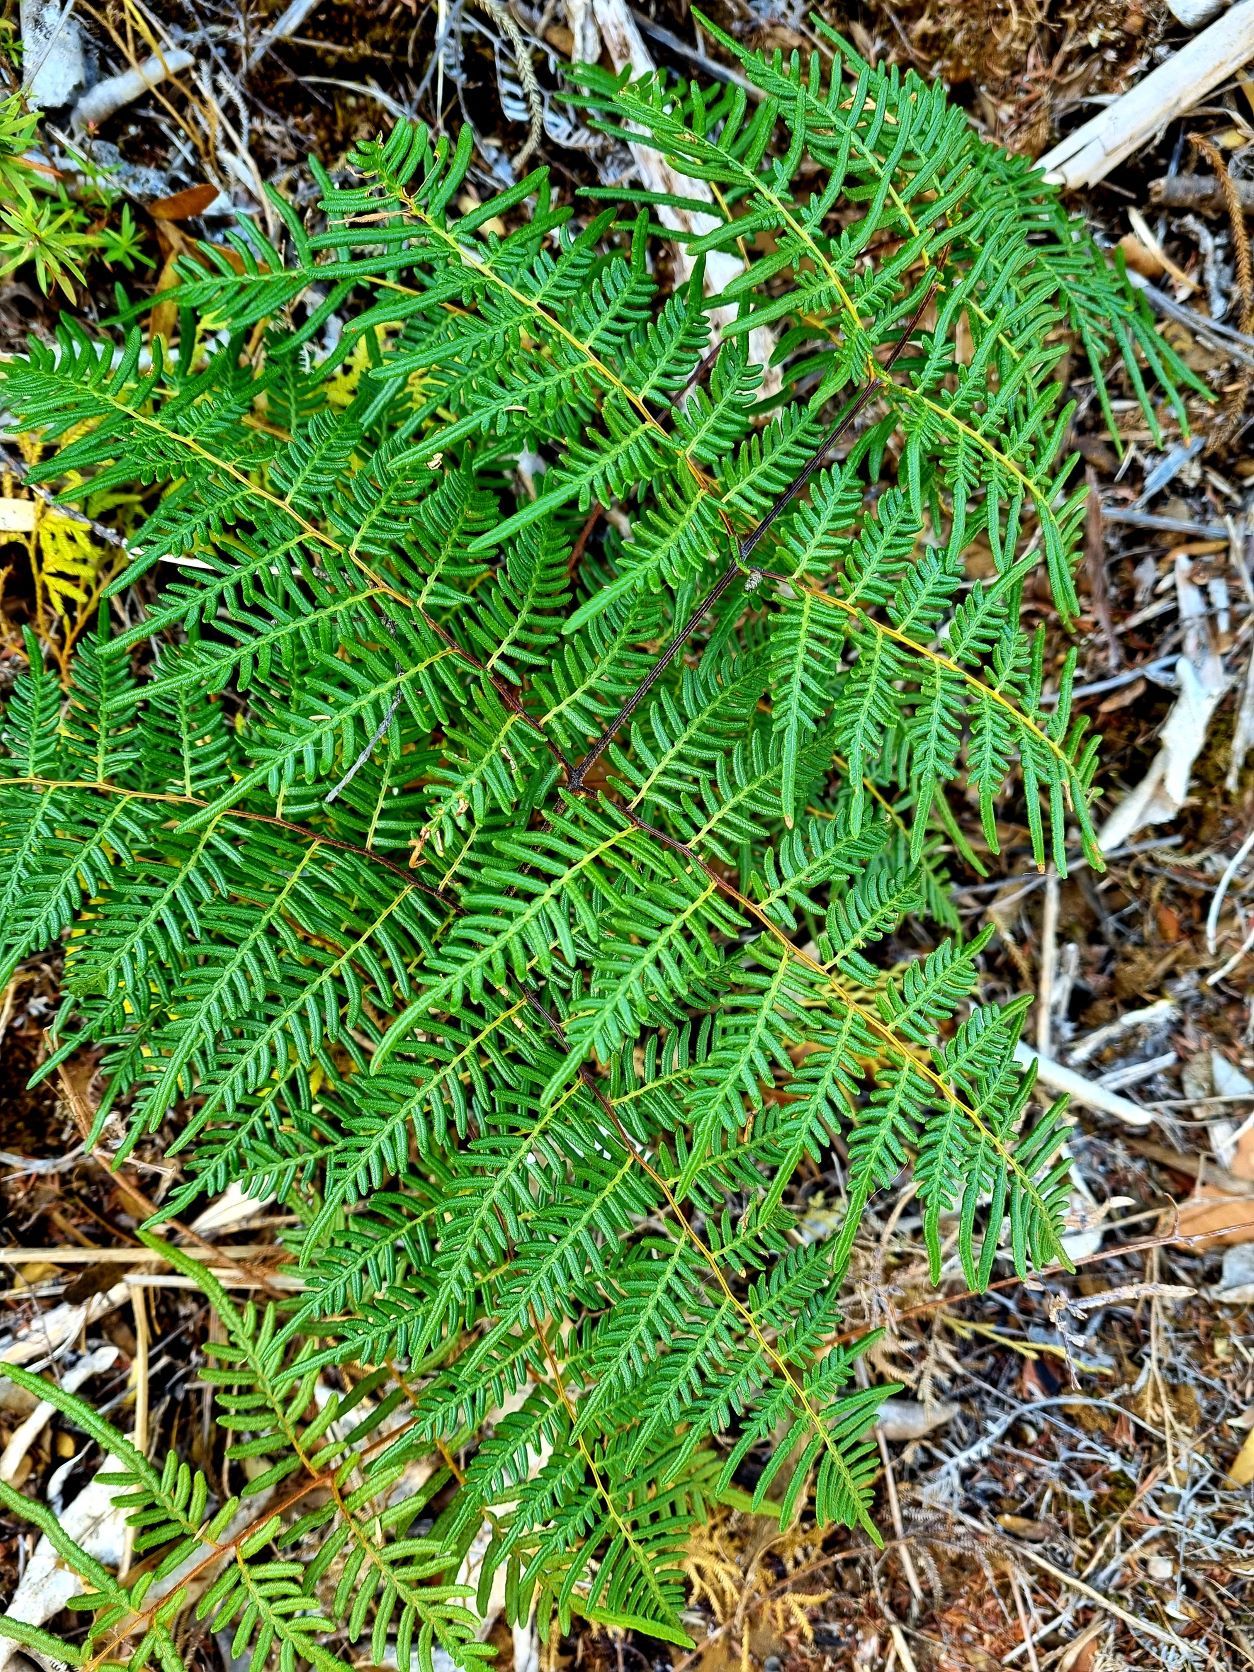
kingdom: Plantae
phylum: Tracheophyta
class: Polypodiopsida
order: Polypodiales
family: Dennstaedtiaceae
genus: Pteridium
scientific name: Pteridium esculentum
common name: Bracken fern
